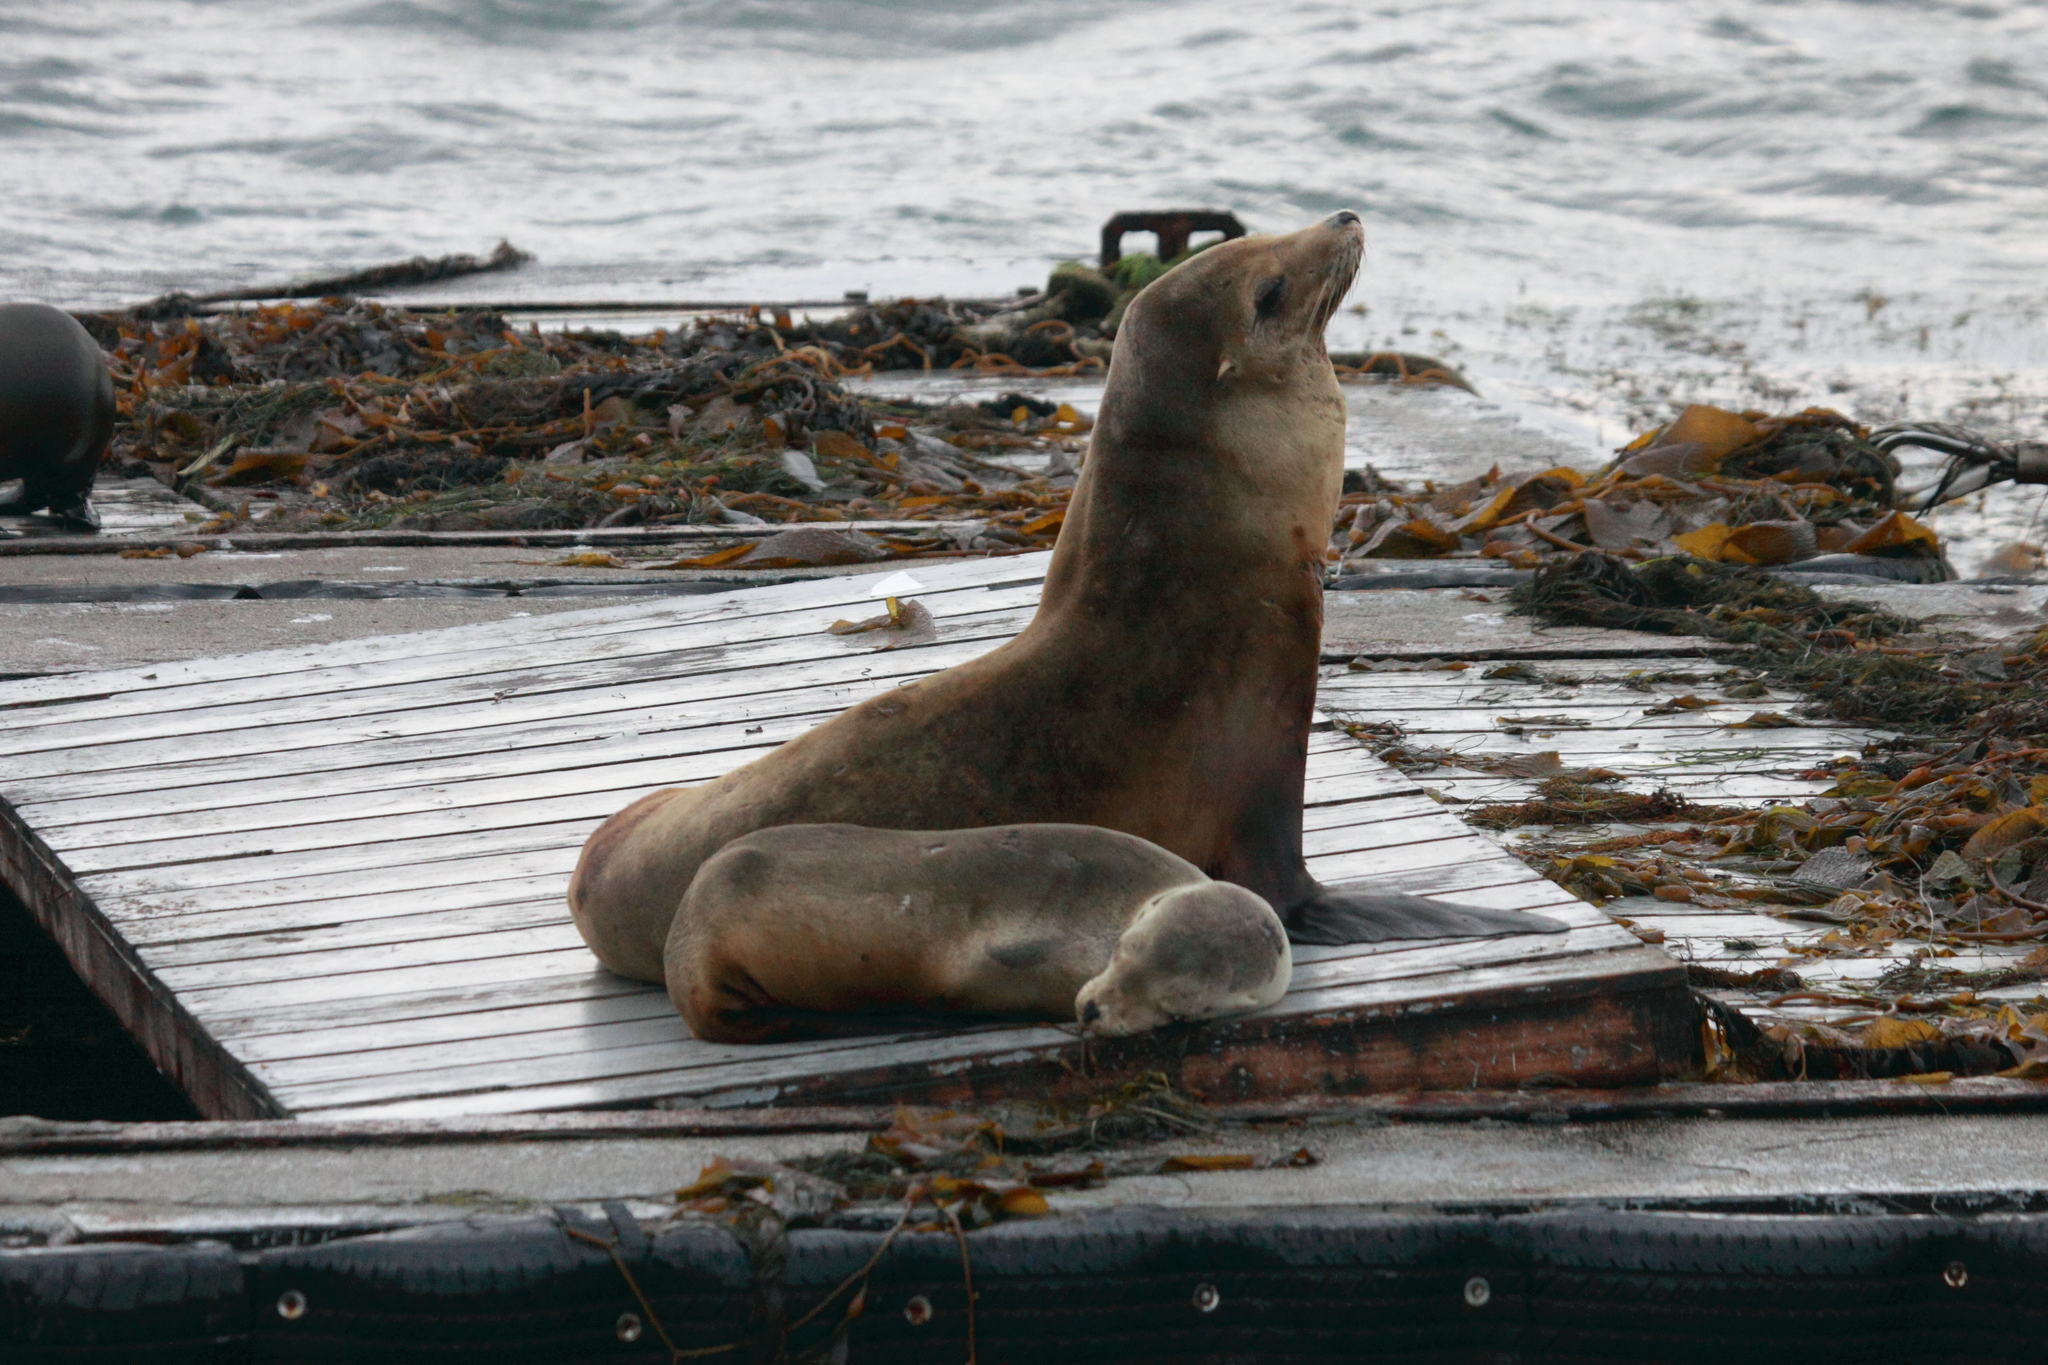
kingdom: Animalia
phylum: Chordata
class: Mammalia
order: Carnivora
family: Otariidae
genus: Zalophus
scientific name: Zalophus californianus
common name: California sea lion
